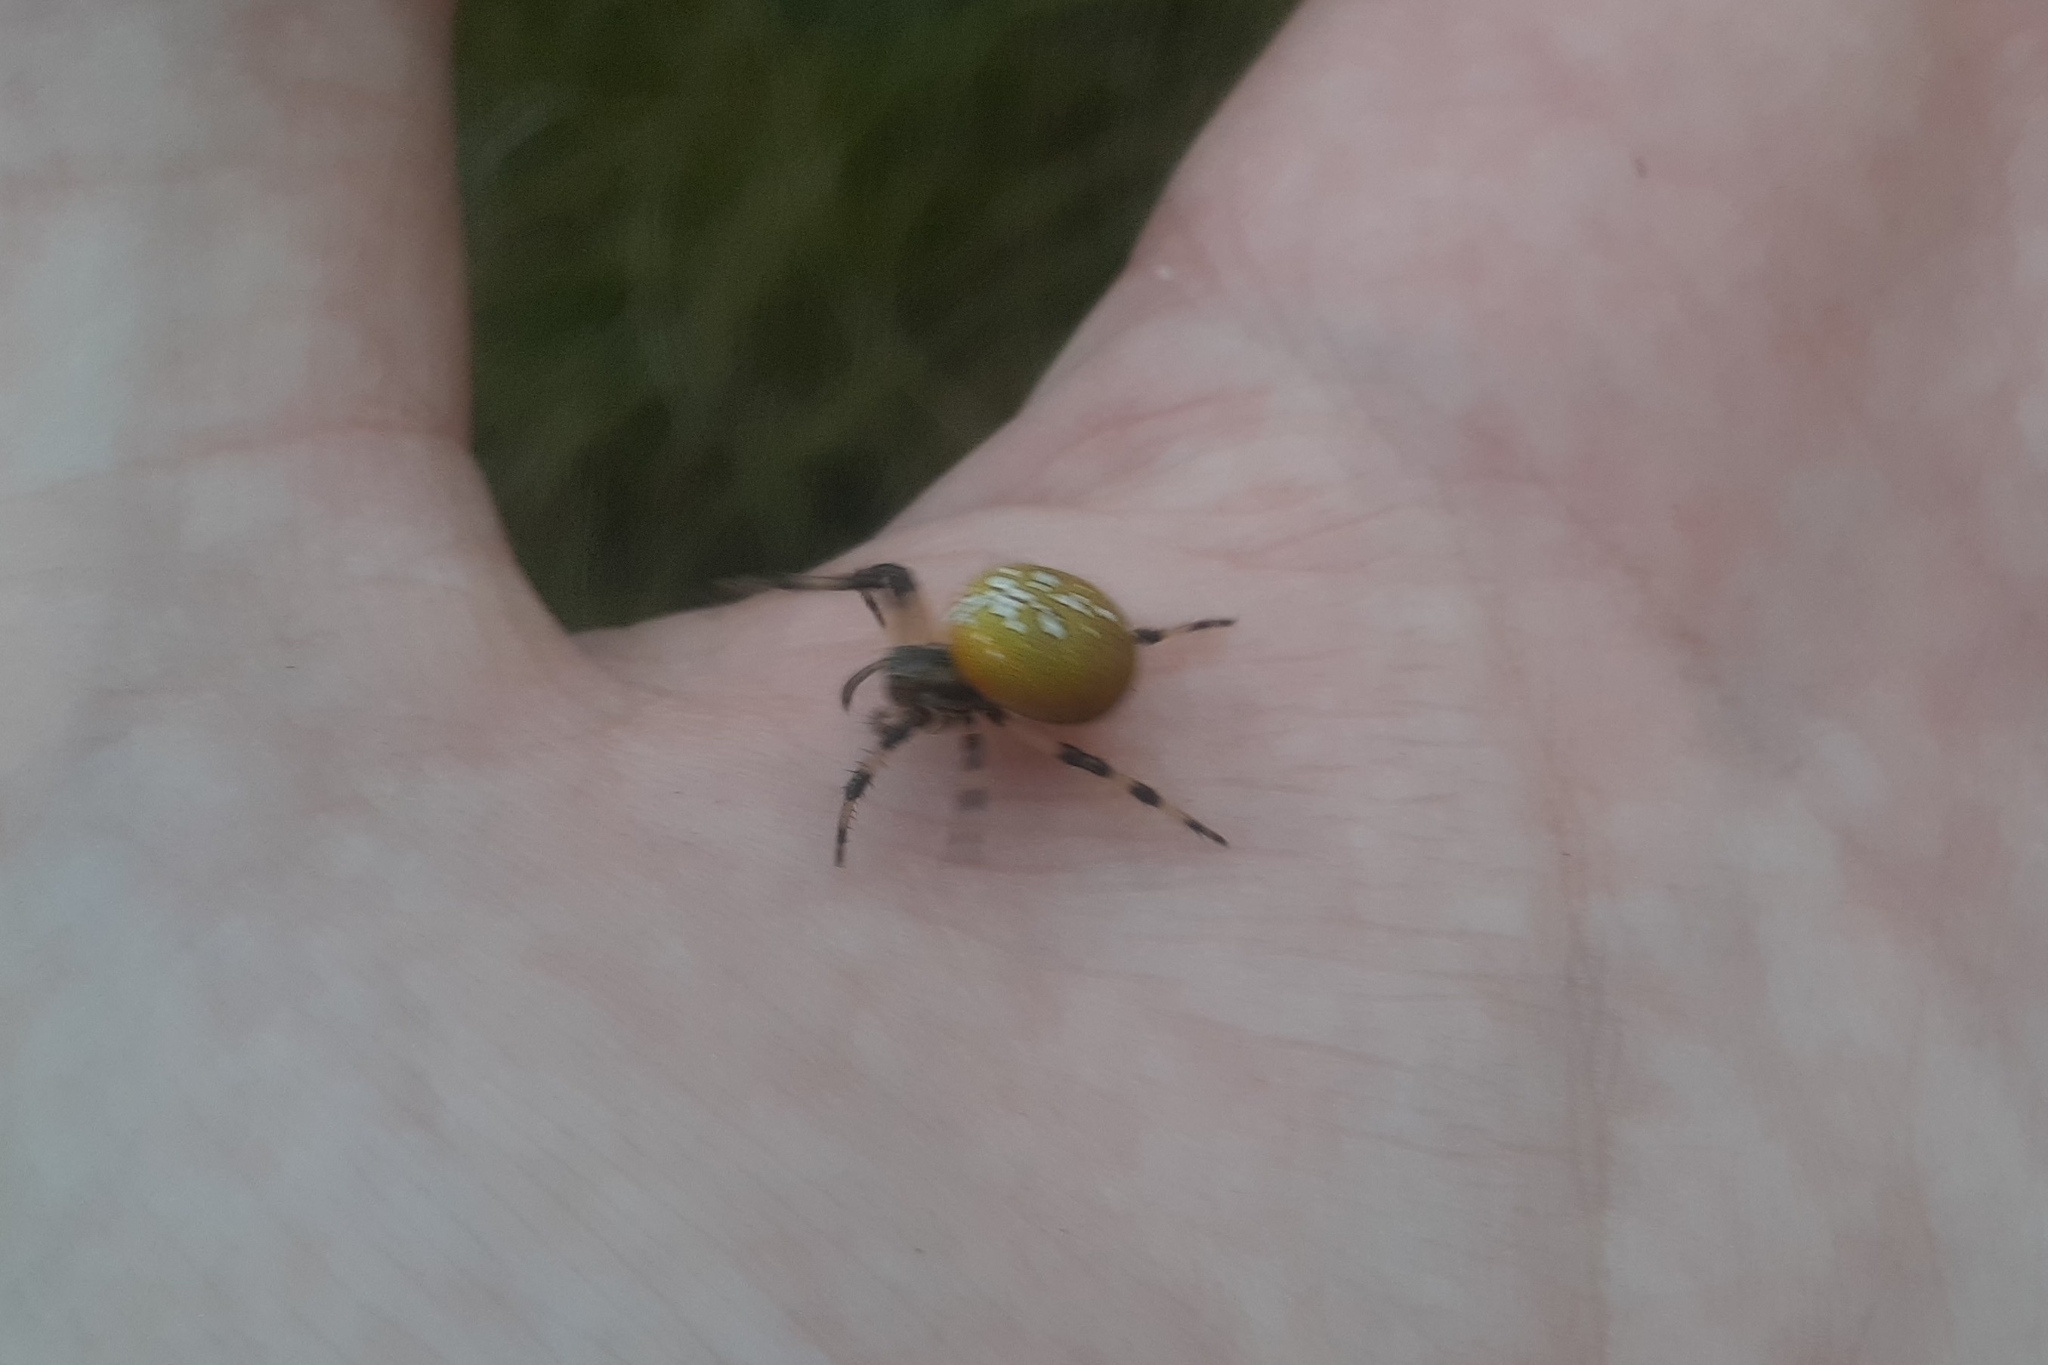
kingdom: Animalia
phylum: Arthropoda
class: Arachnida
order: Araneae
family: Araneidae
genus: Araneus
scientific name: Araneus trifolium
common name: Shamrock orbweaver
